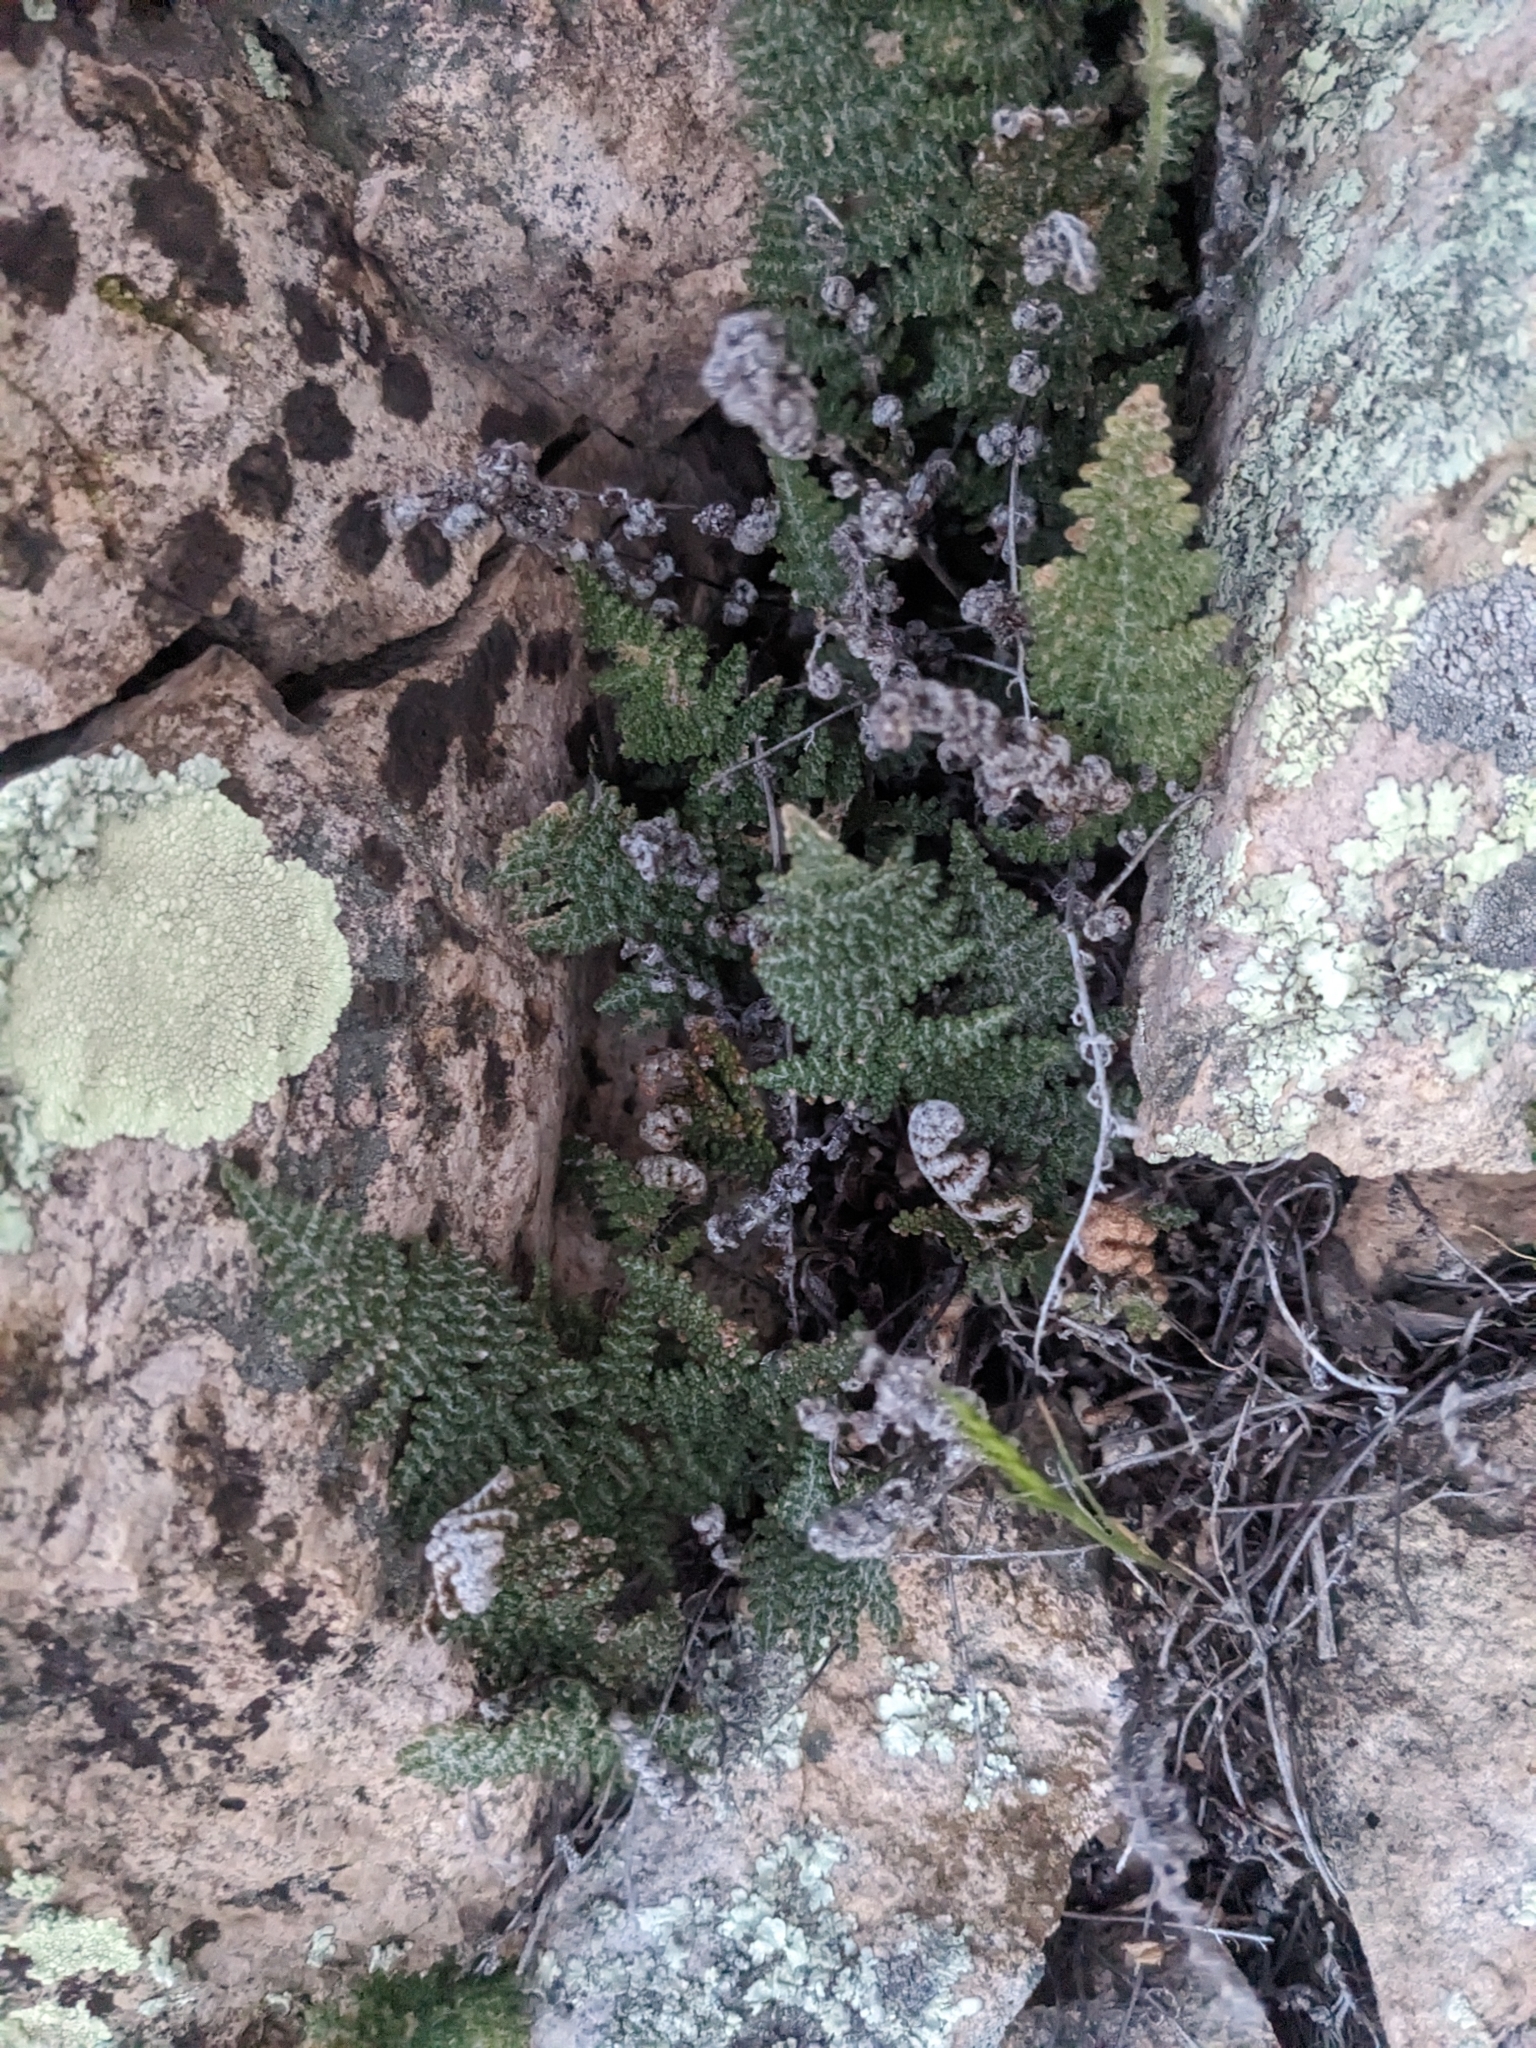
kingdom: Plantae
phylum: Tracheophyta
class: Polypodiopsida
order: Polypodiales
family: Pteridaceae
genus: Myriopteris
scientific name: Myriopteris covillei
